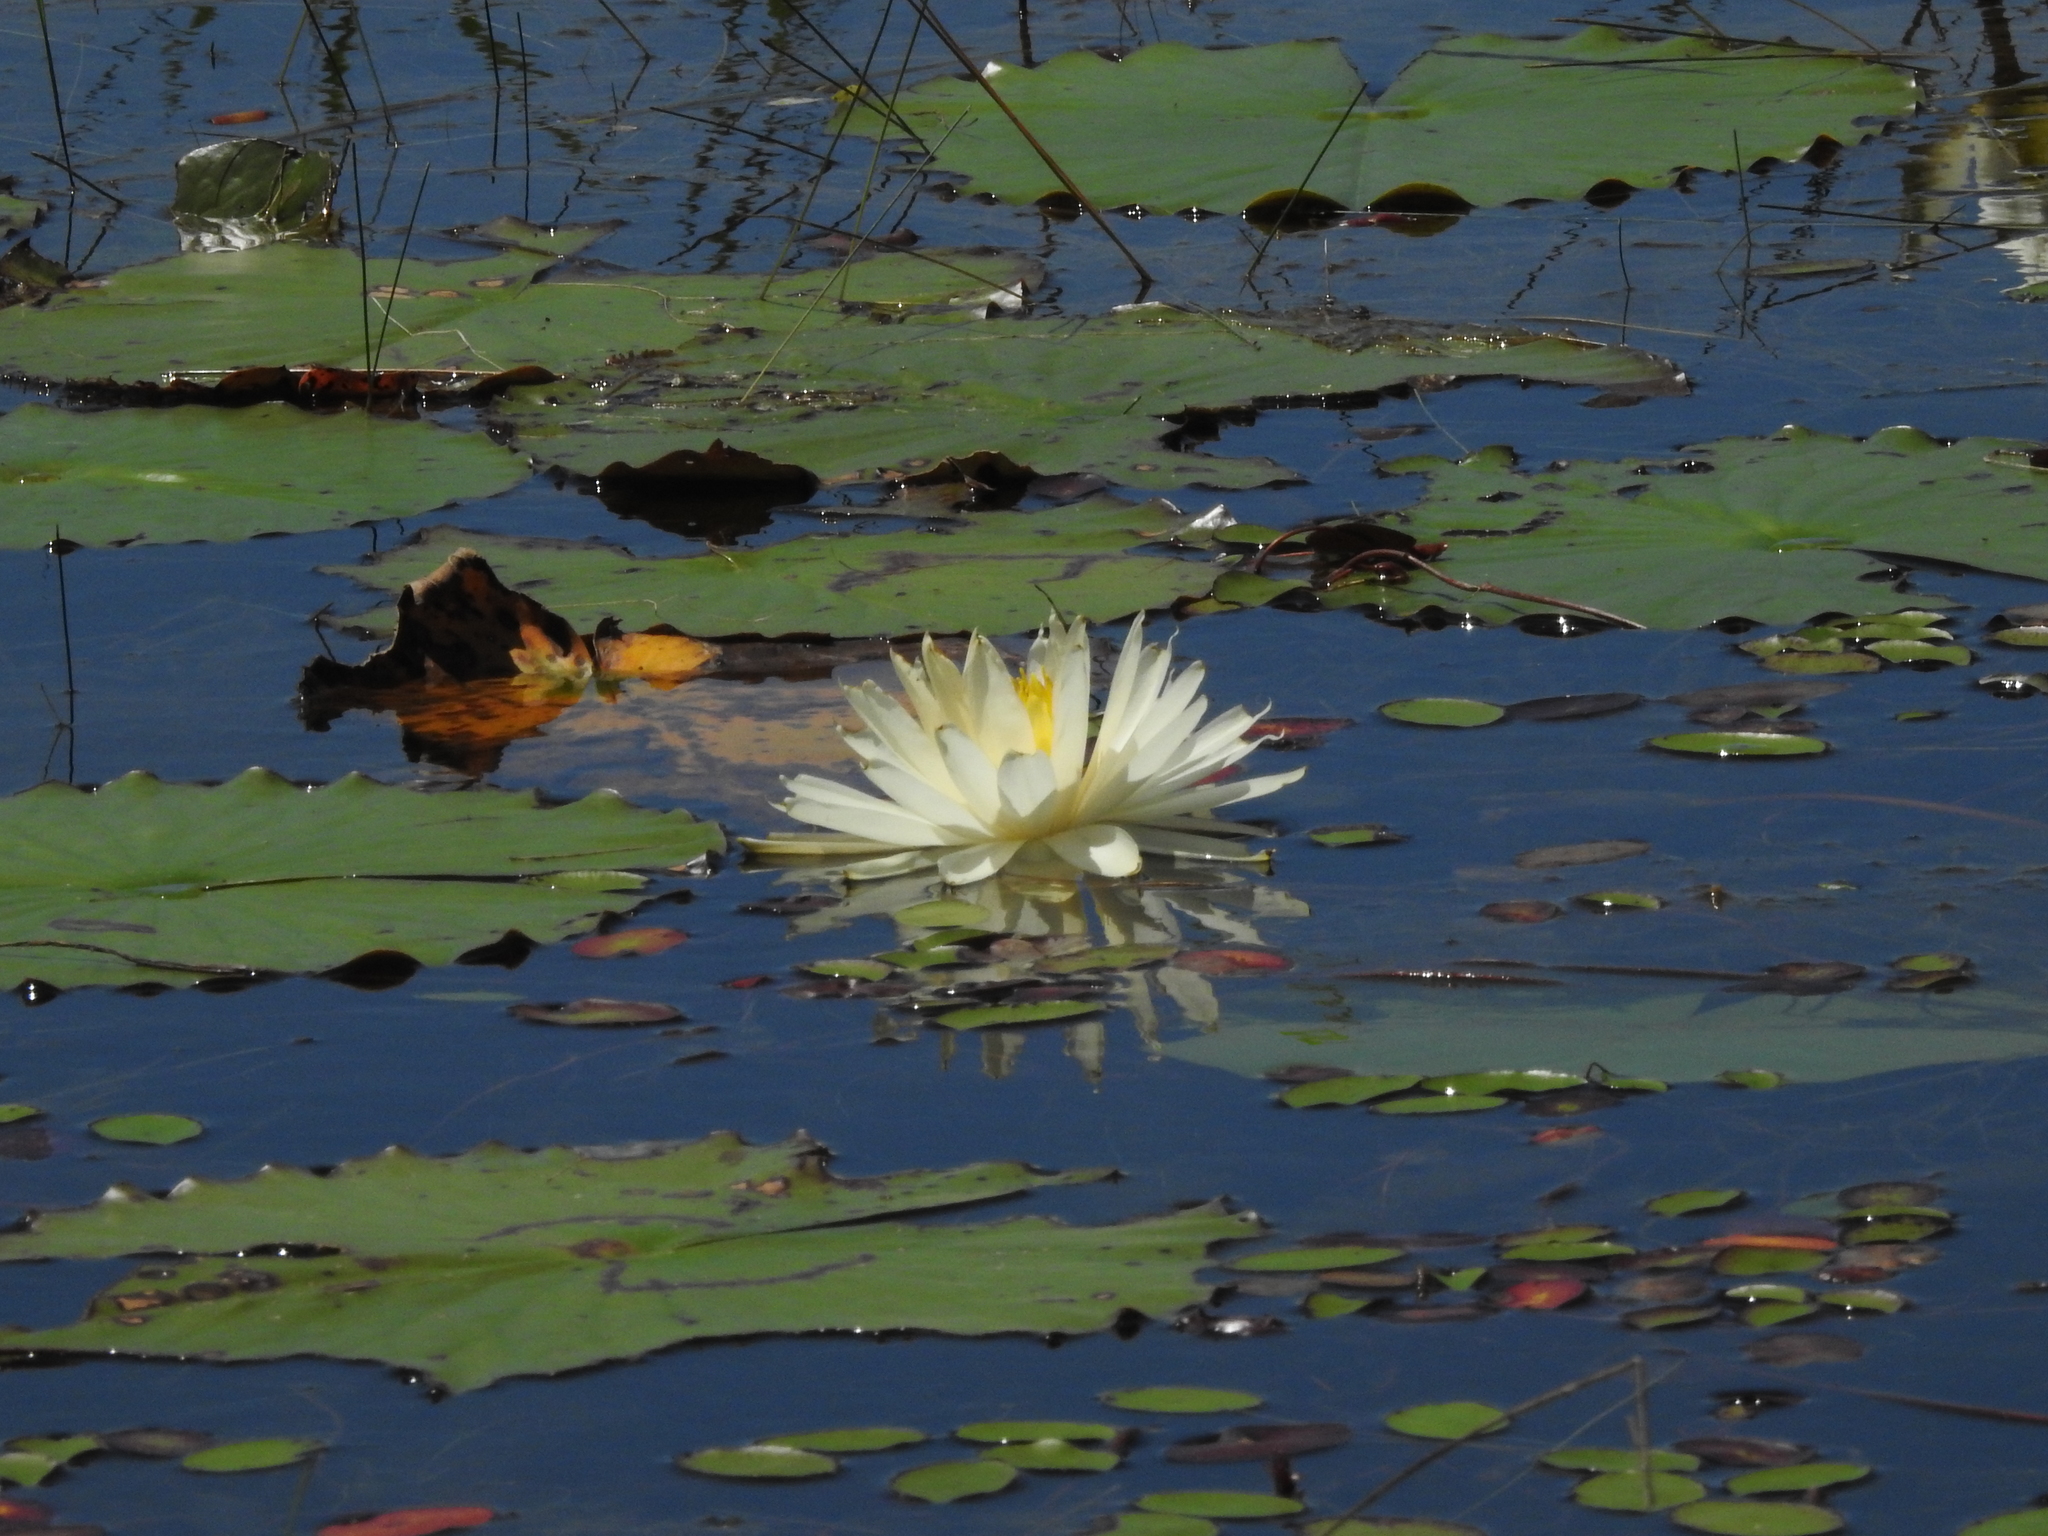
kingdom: Plantae
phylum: Tracheophyta
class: Magnoliopsida
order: Nymphaeales
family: Nymphaeaceae
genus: Nymphaea
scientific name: Nymphaea odorata
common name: Fragrant water-lily
